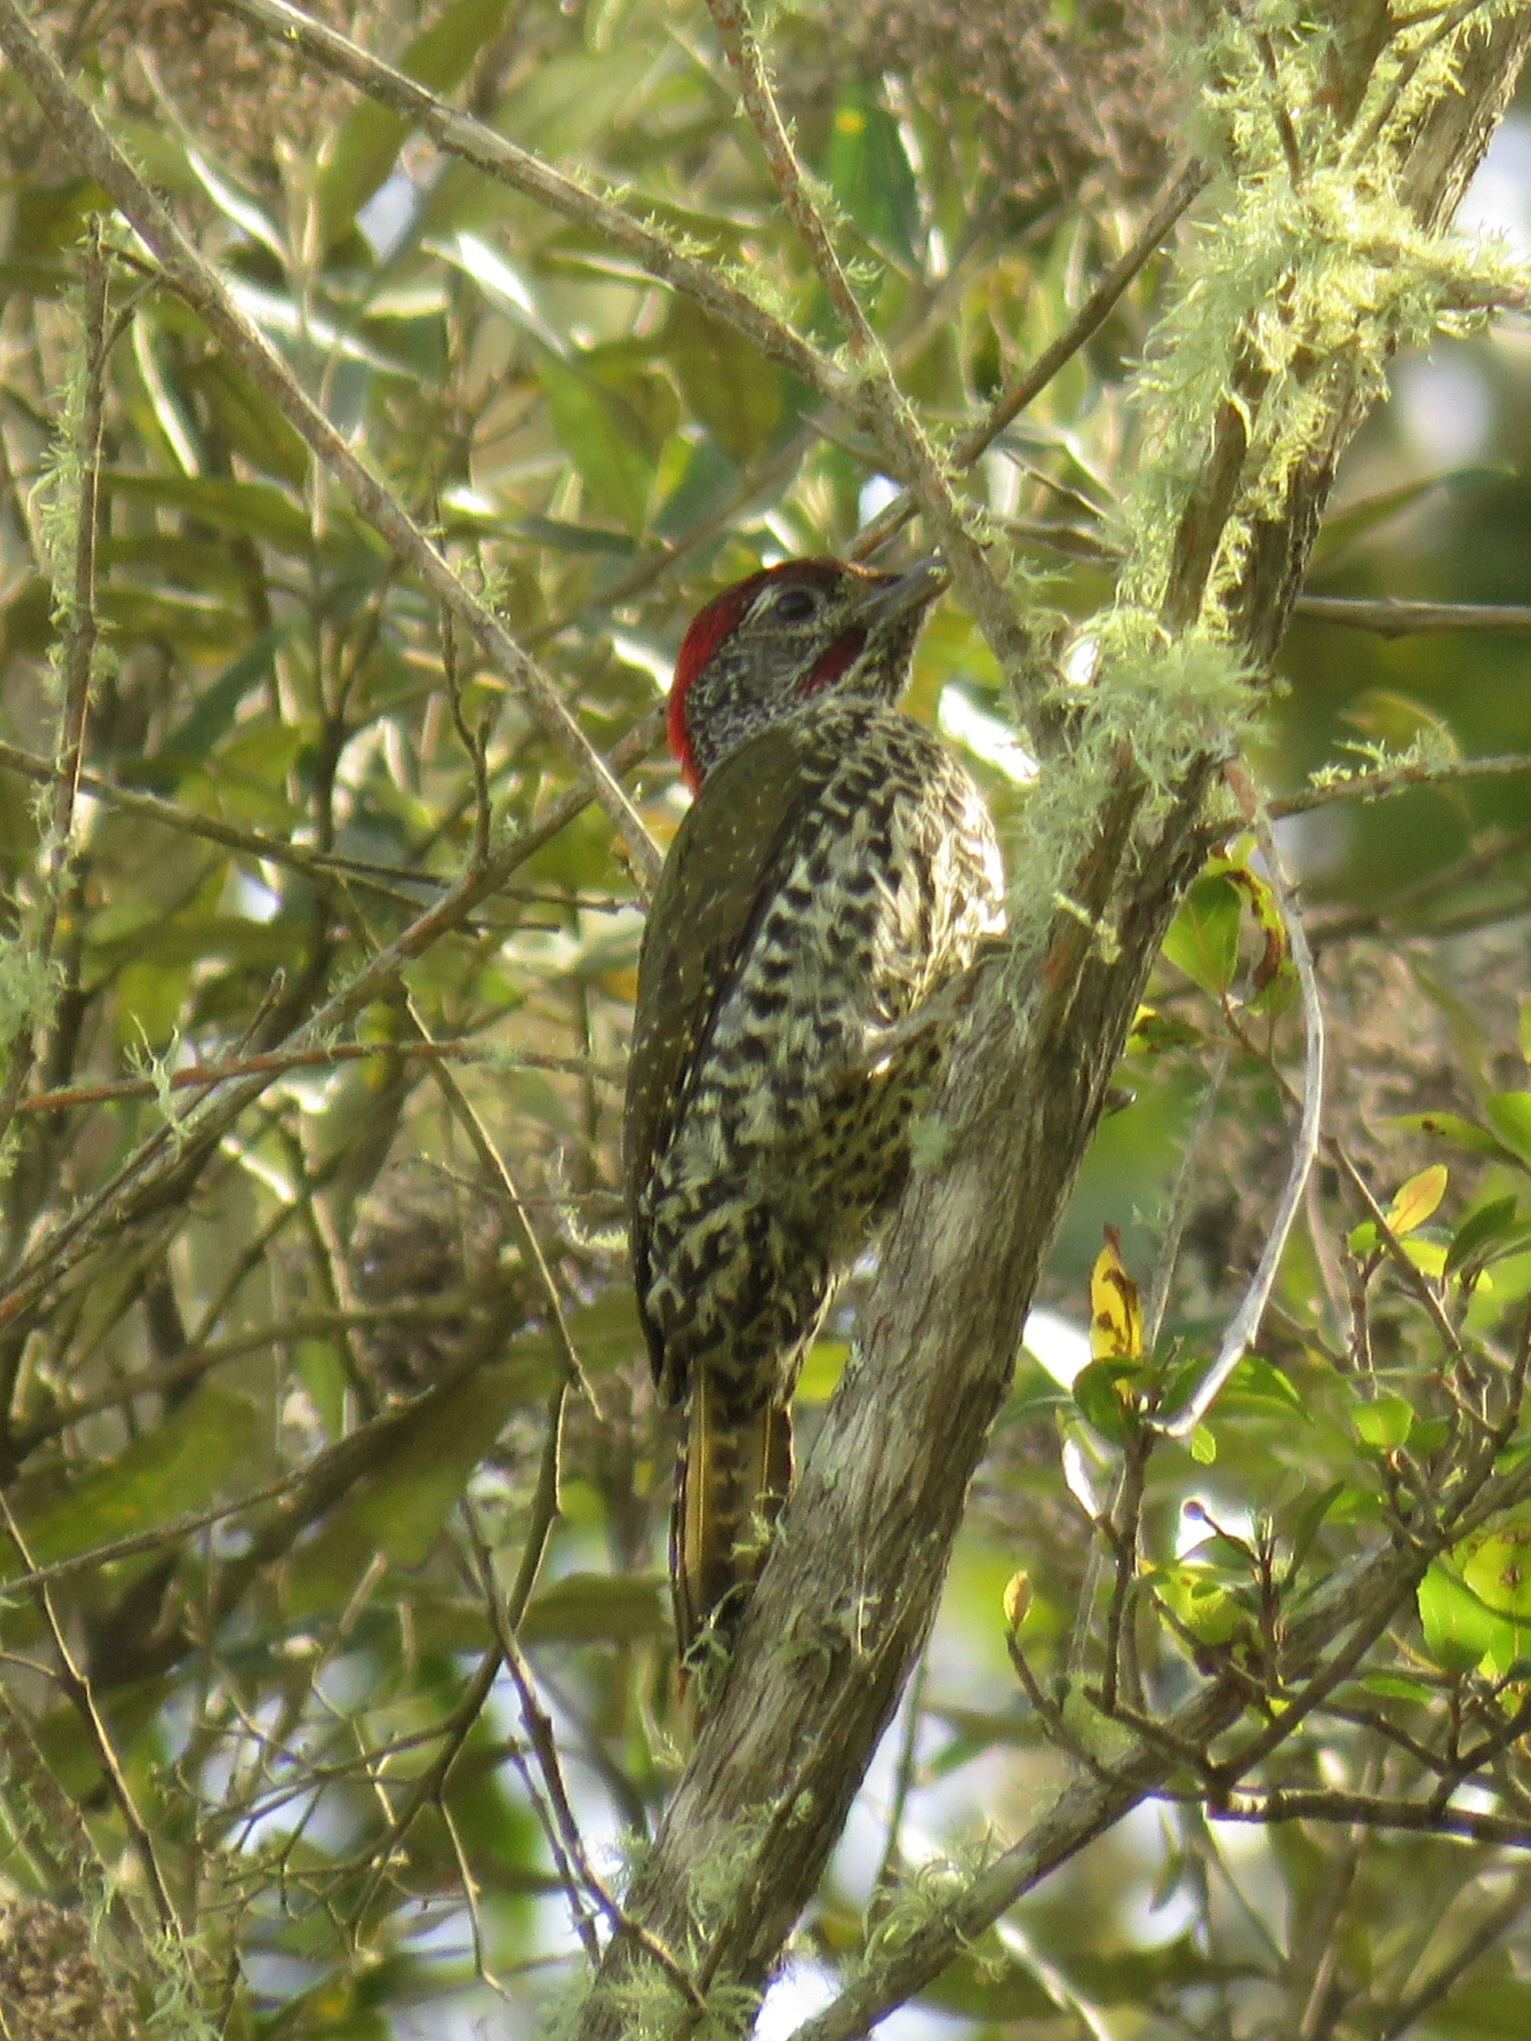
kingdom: Animalia
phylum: Chordata
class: Aves
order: Piciformes
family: Picidae
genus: Campethera
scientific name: Campethera notata
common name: Knysna woodpecker
